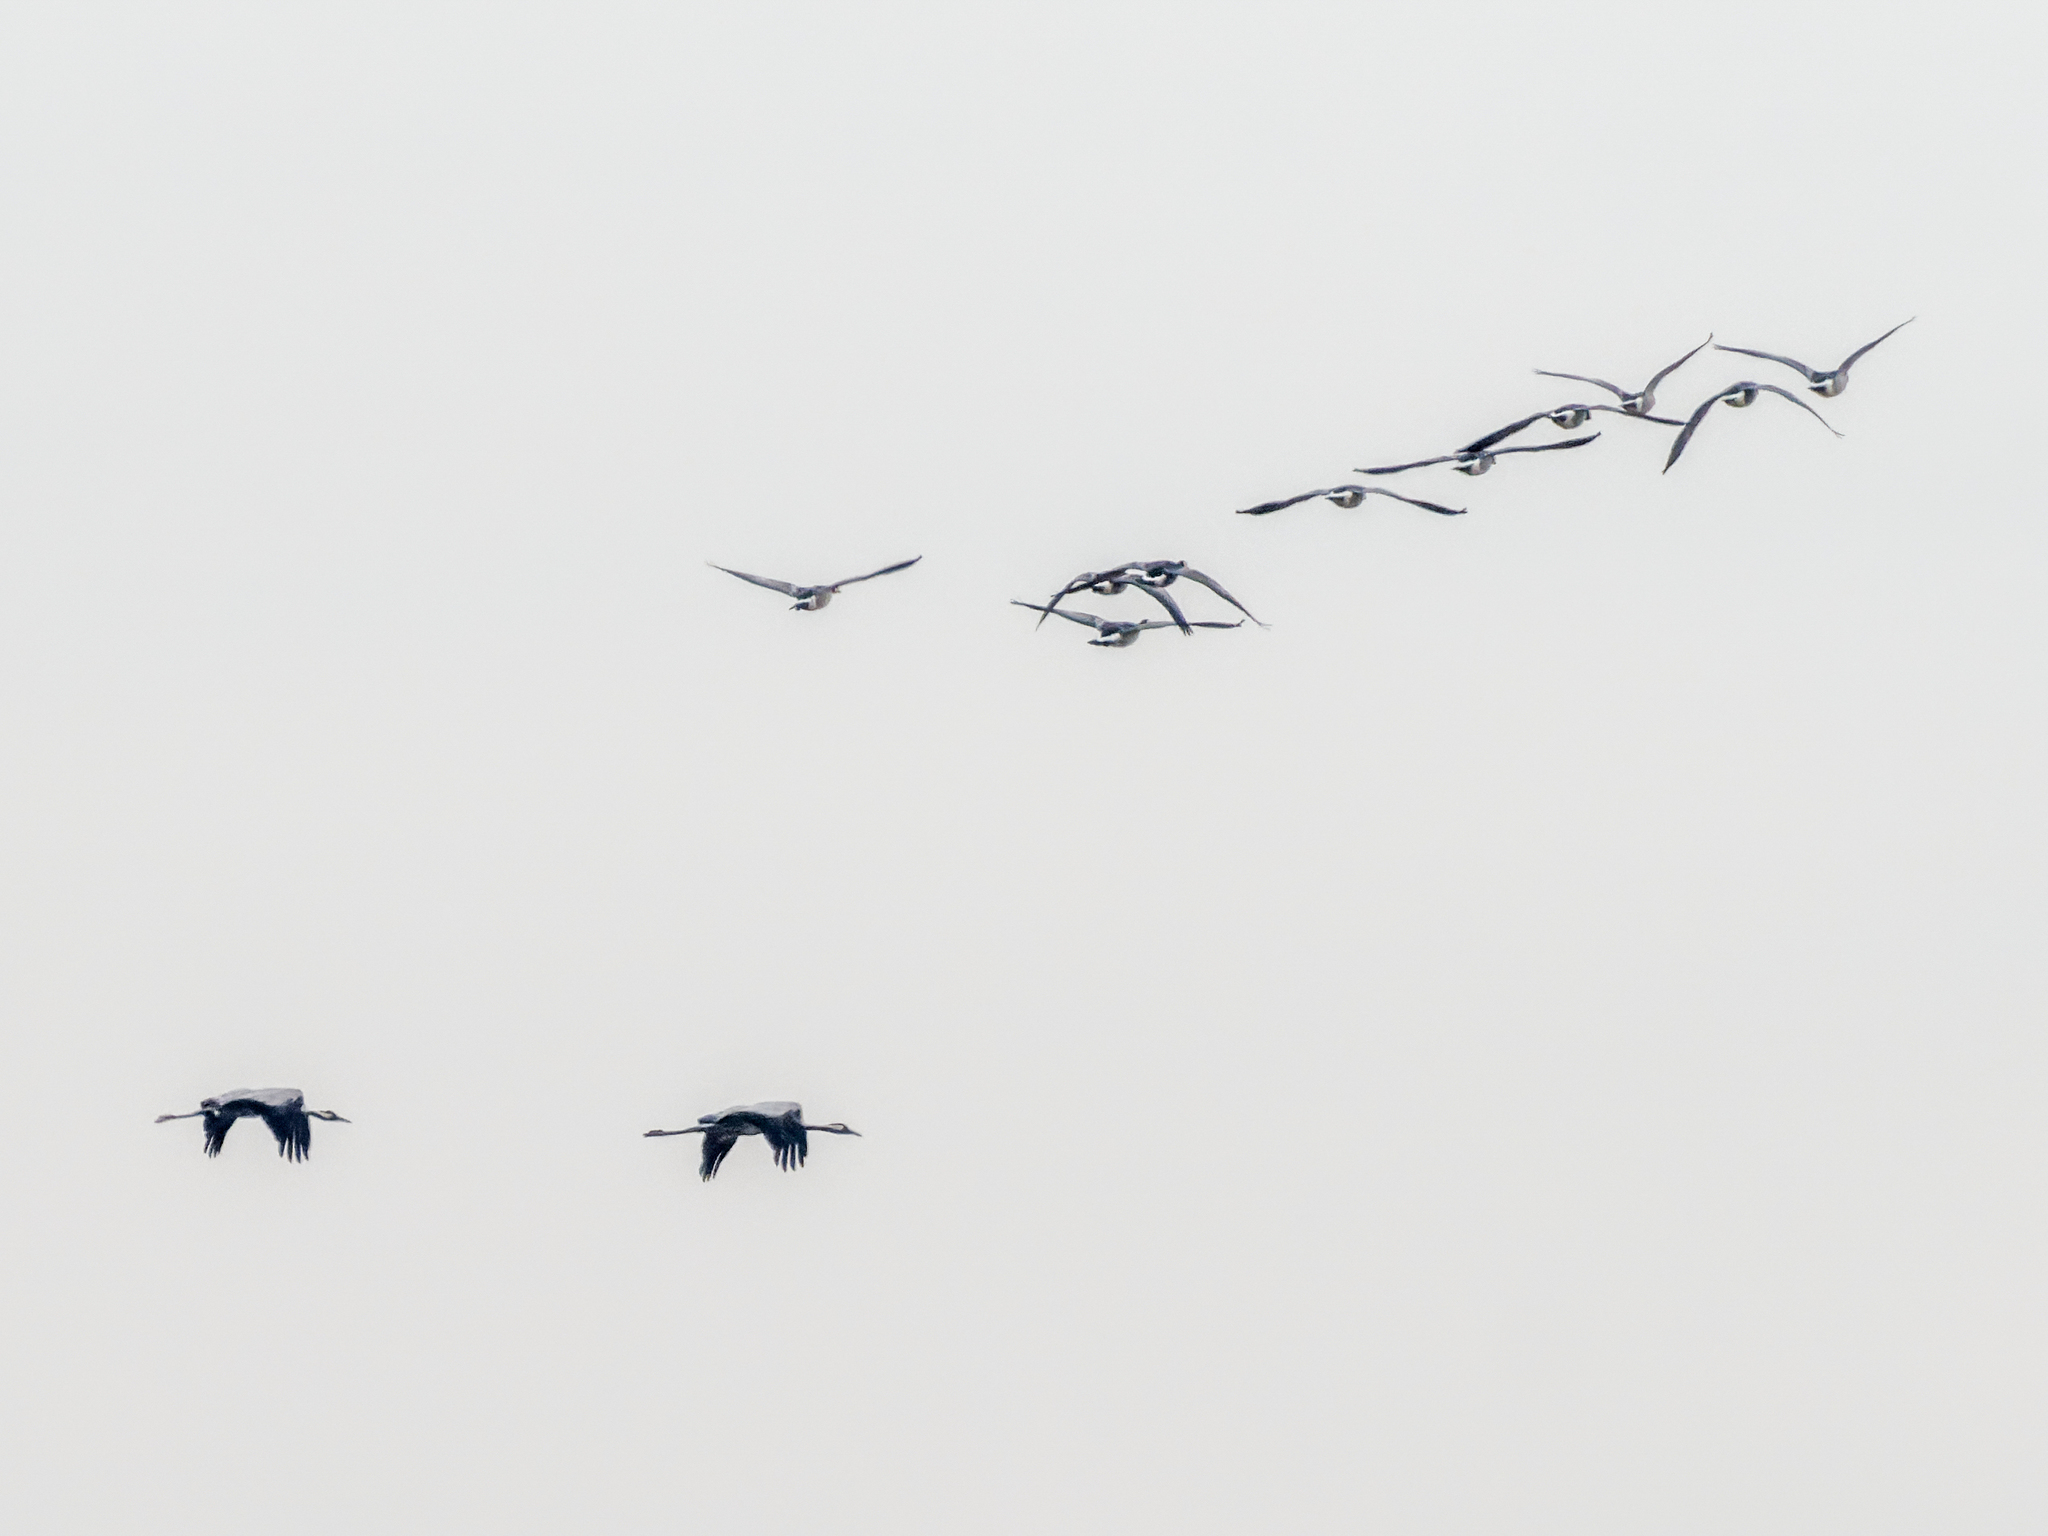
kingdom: Animalia
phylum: Chordata
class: Aves
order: Gruiformes
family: Gruidae
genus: Grus
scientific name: Grus grus
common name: Common crane
